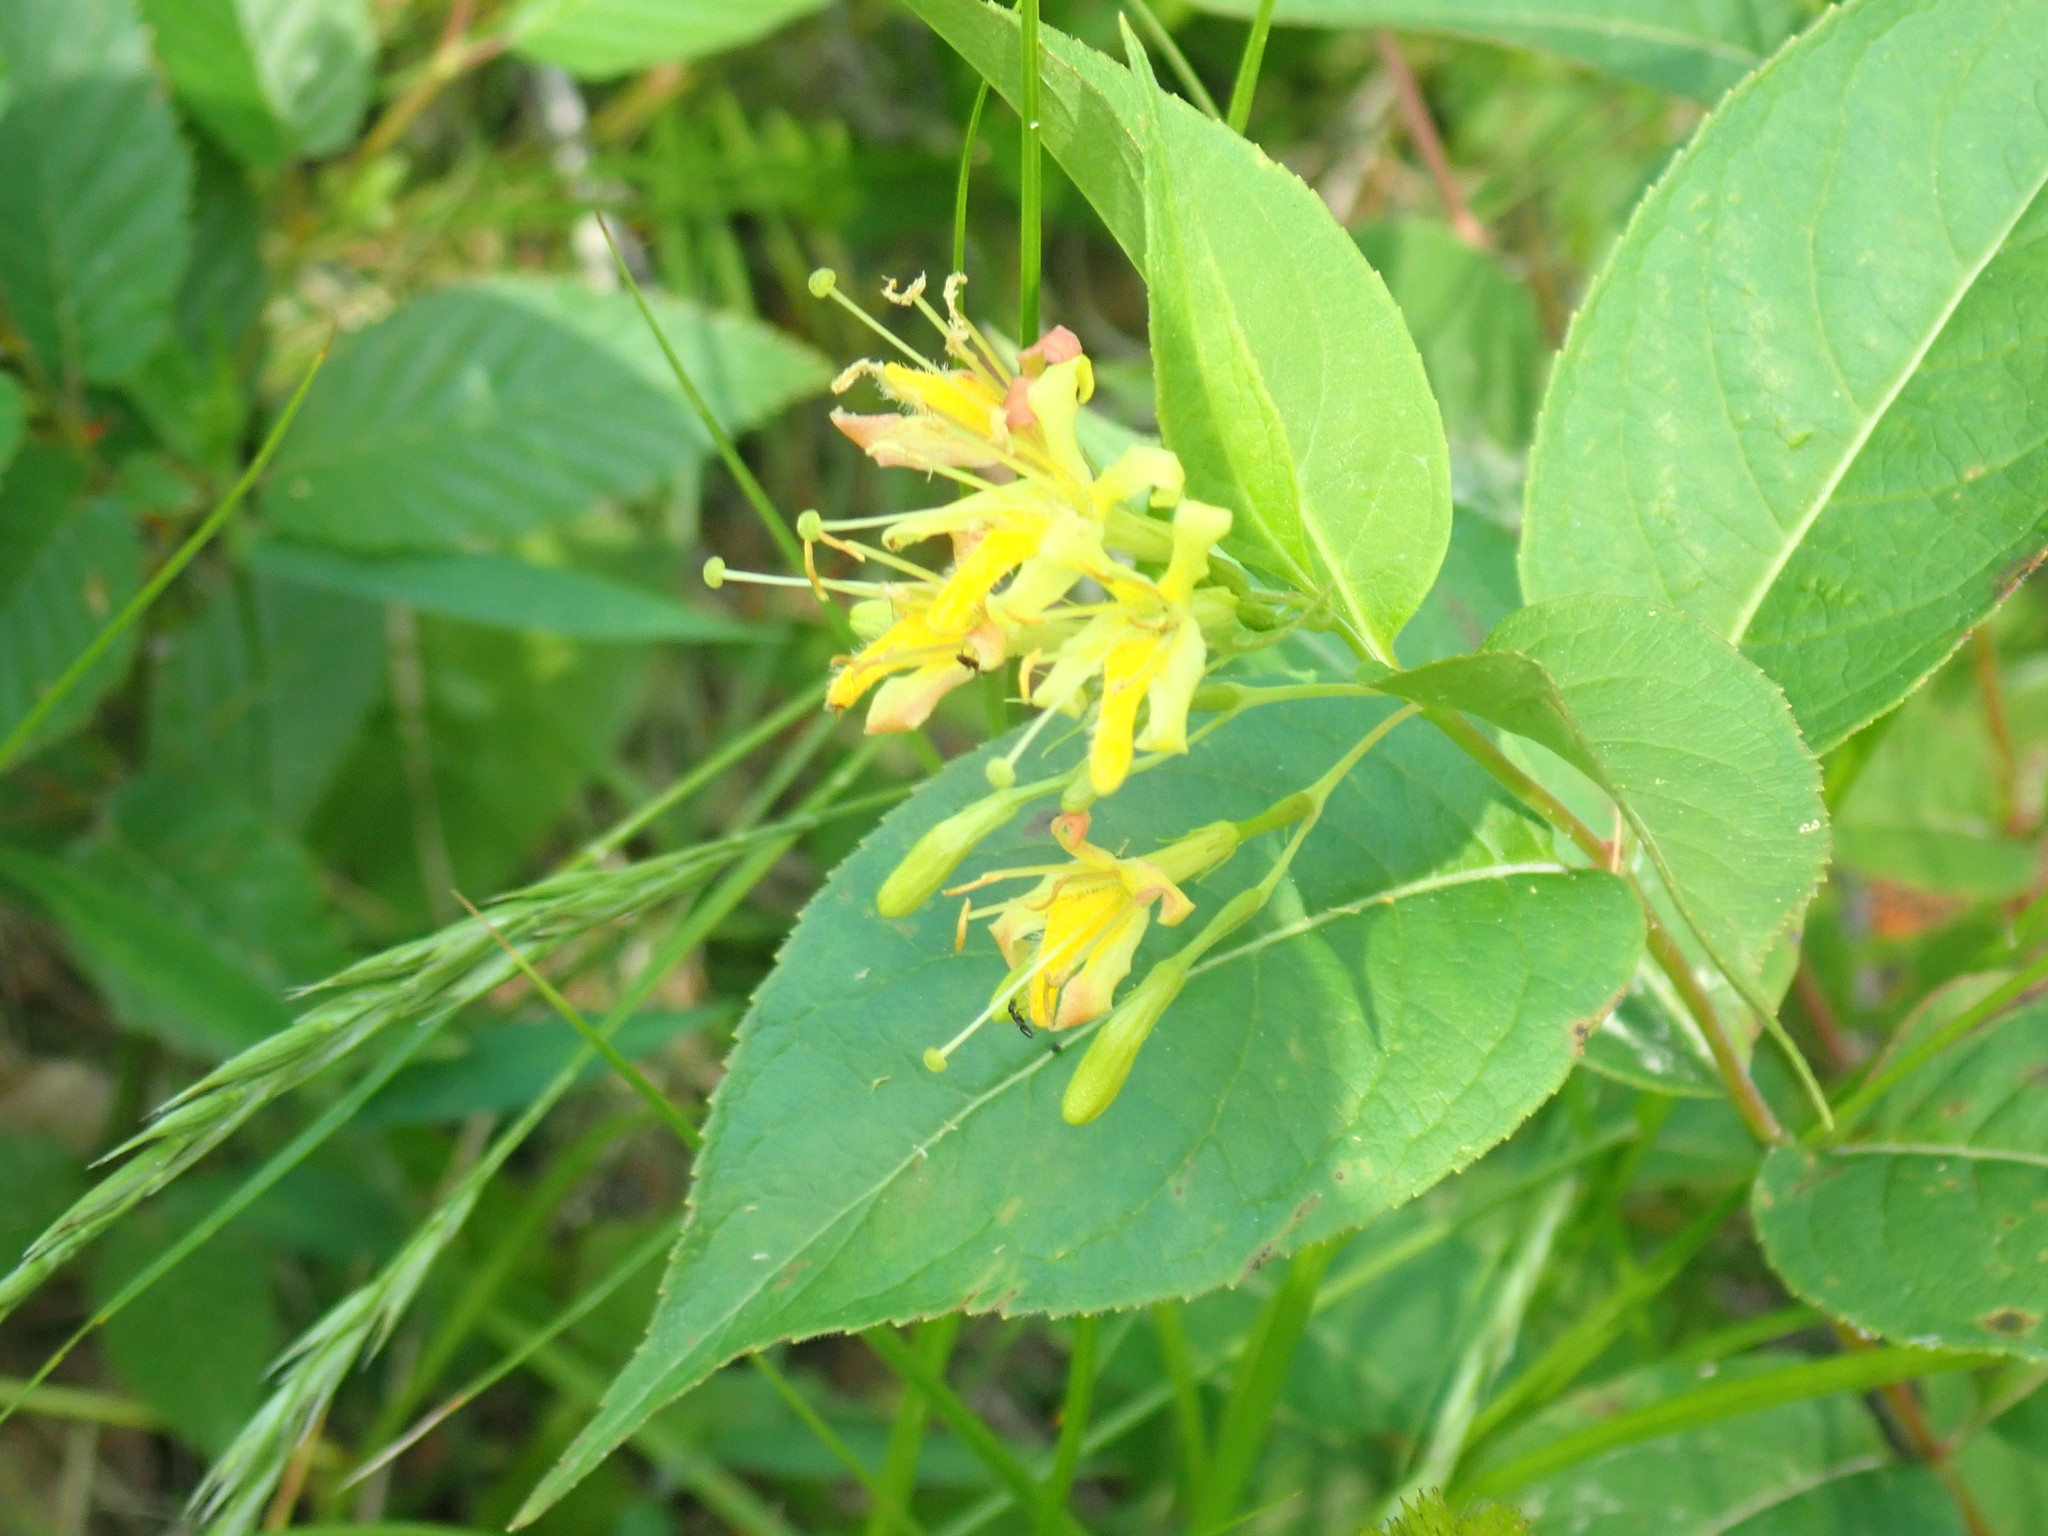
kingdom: Plantae
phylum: Tracheophyta
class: Magnoliopsida
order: Dipsacales
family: Caprifoliaceae
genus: Diervilla
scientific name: Diervilla lonicera
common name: Bush-honeysuckle
